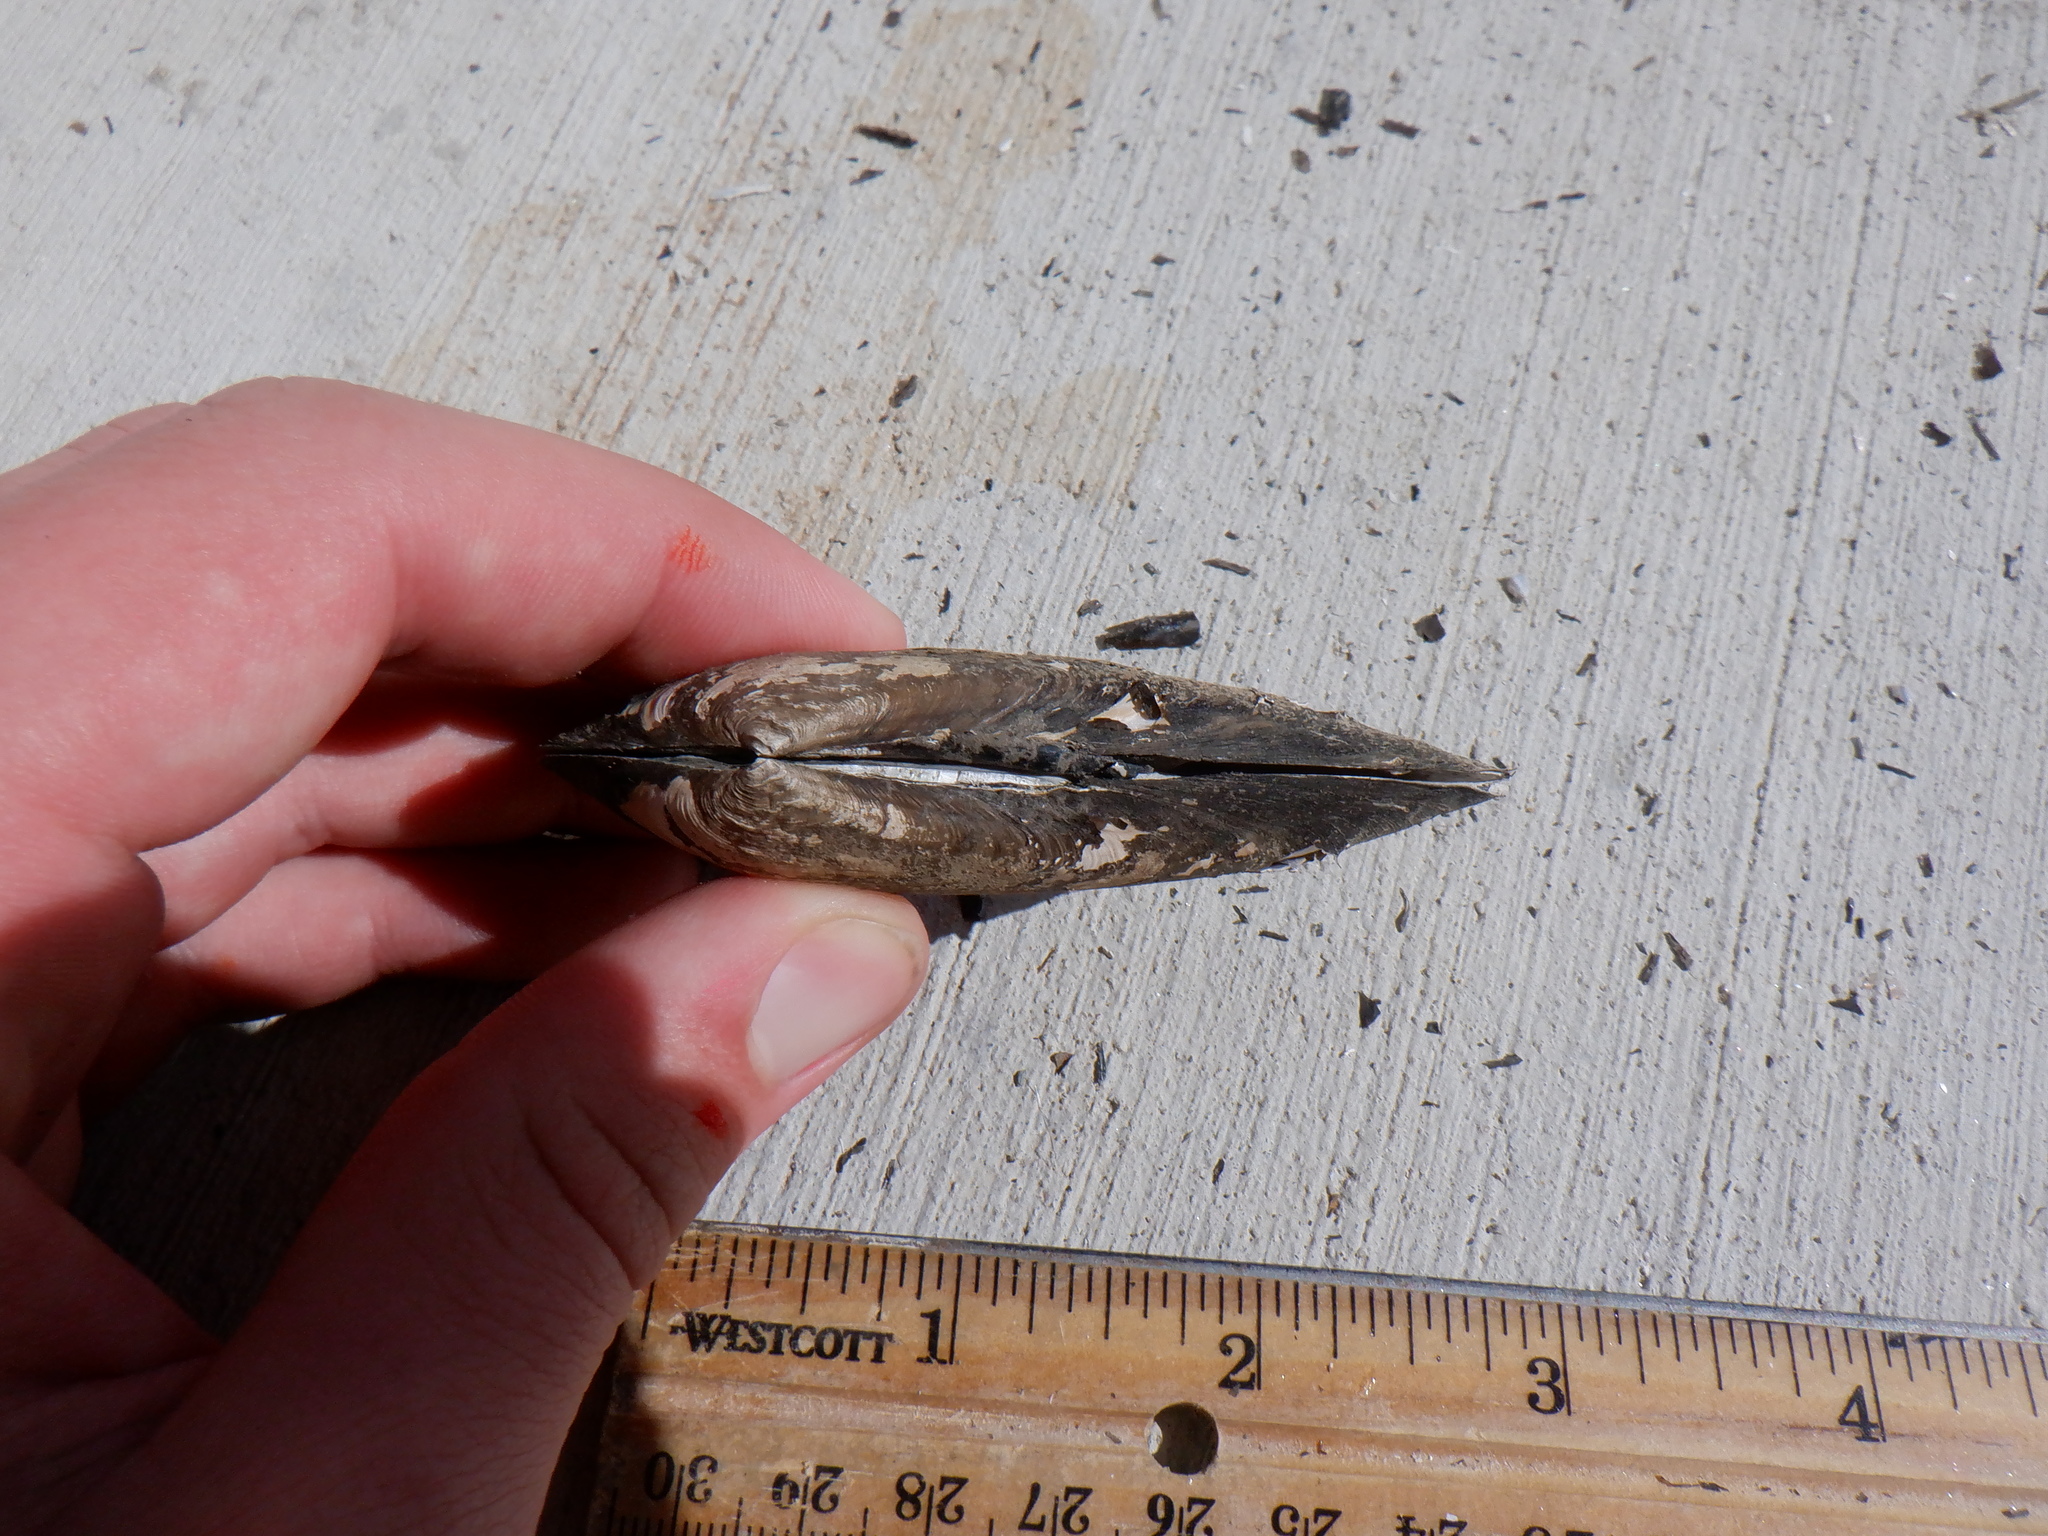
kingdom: Animalia
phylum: Mollusca
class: Bivalvia
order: Unionida
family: Unionidae
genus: Eurynia
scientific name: Eurynia dilatata
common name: Spike
